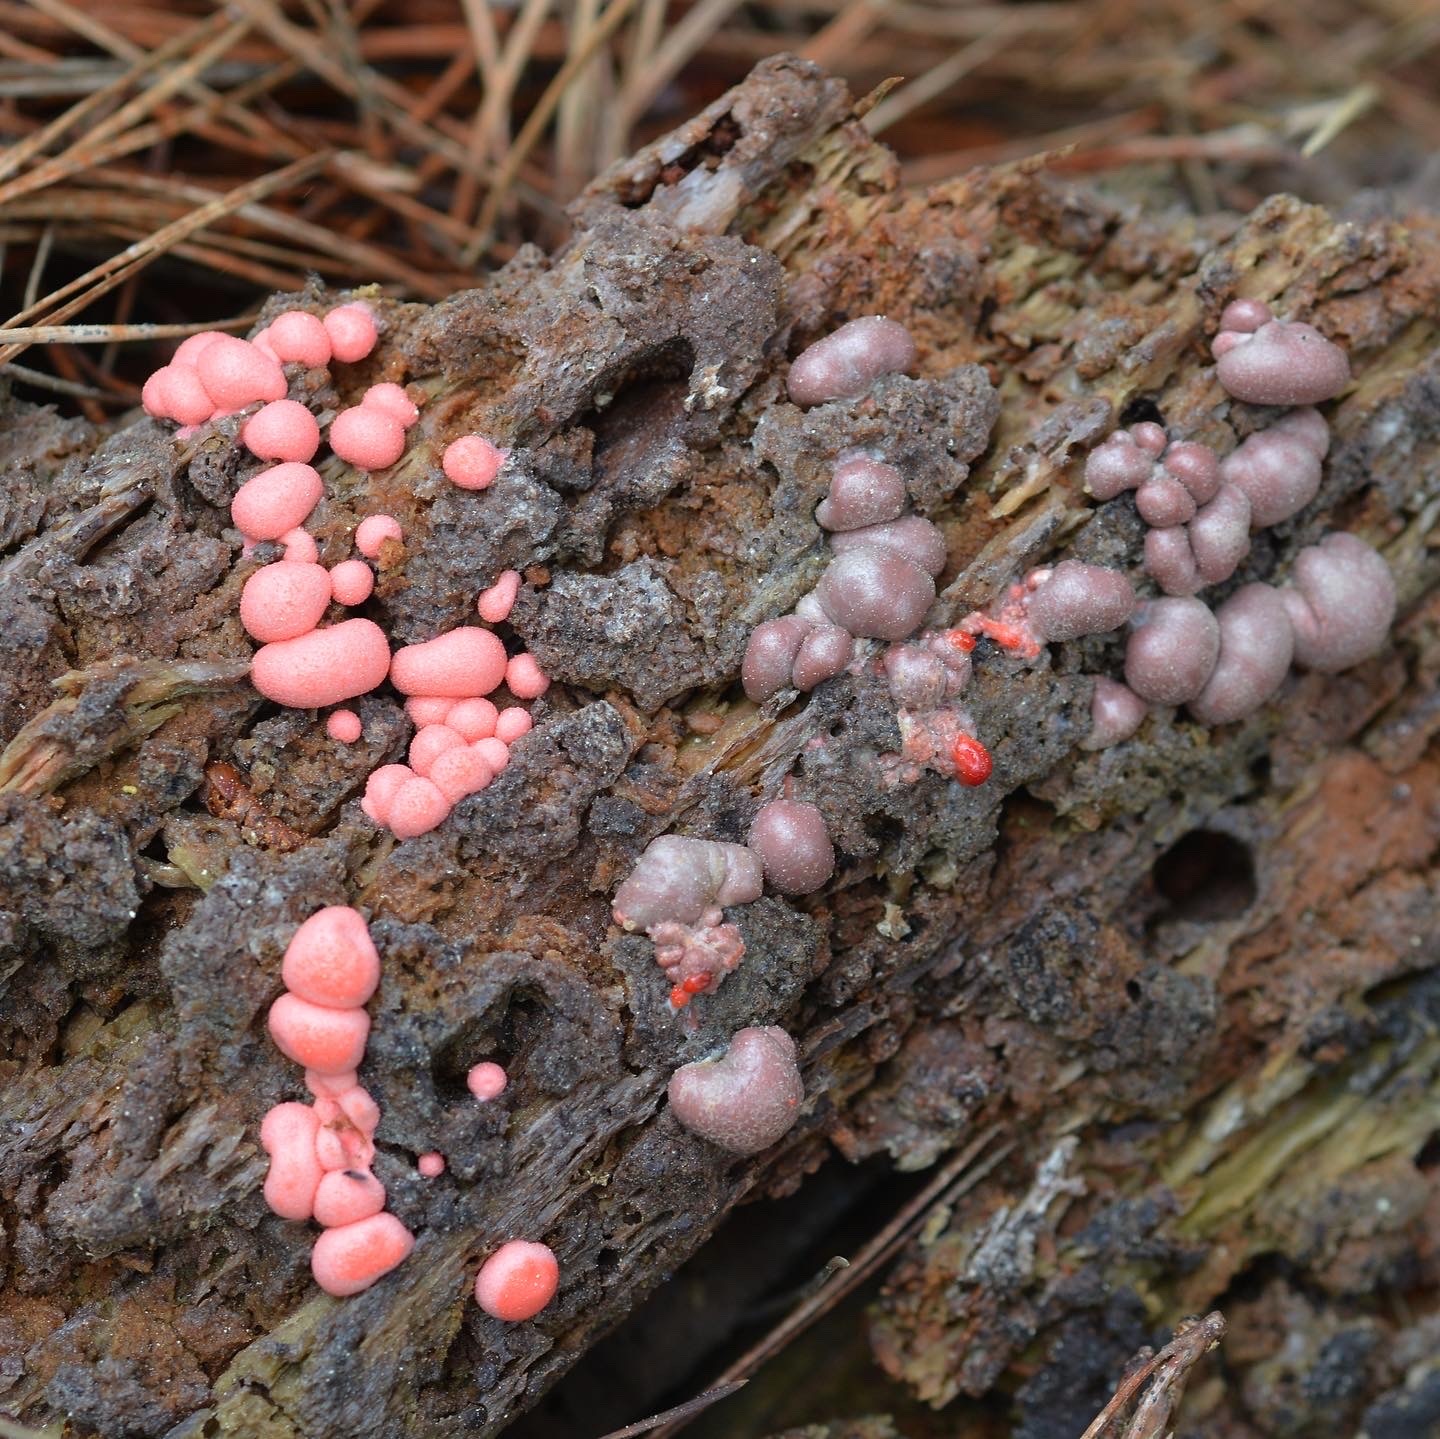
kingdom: Protozoa
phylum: Mycetozoa
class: Myxomycetes
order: Cribrariales
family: Tubiferaceae
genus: Lycogala
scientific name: Lycogala epidendrum
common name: Wolf's milk
